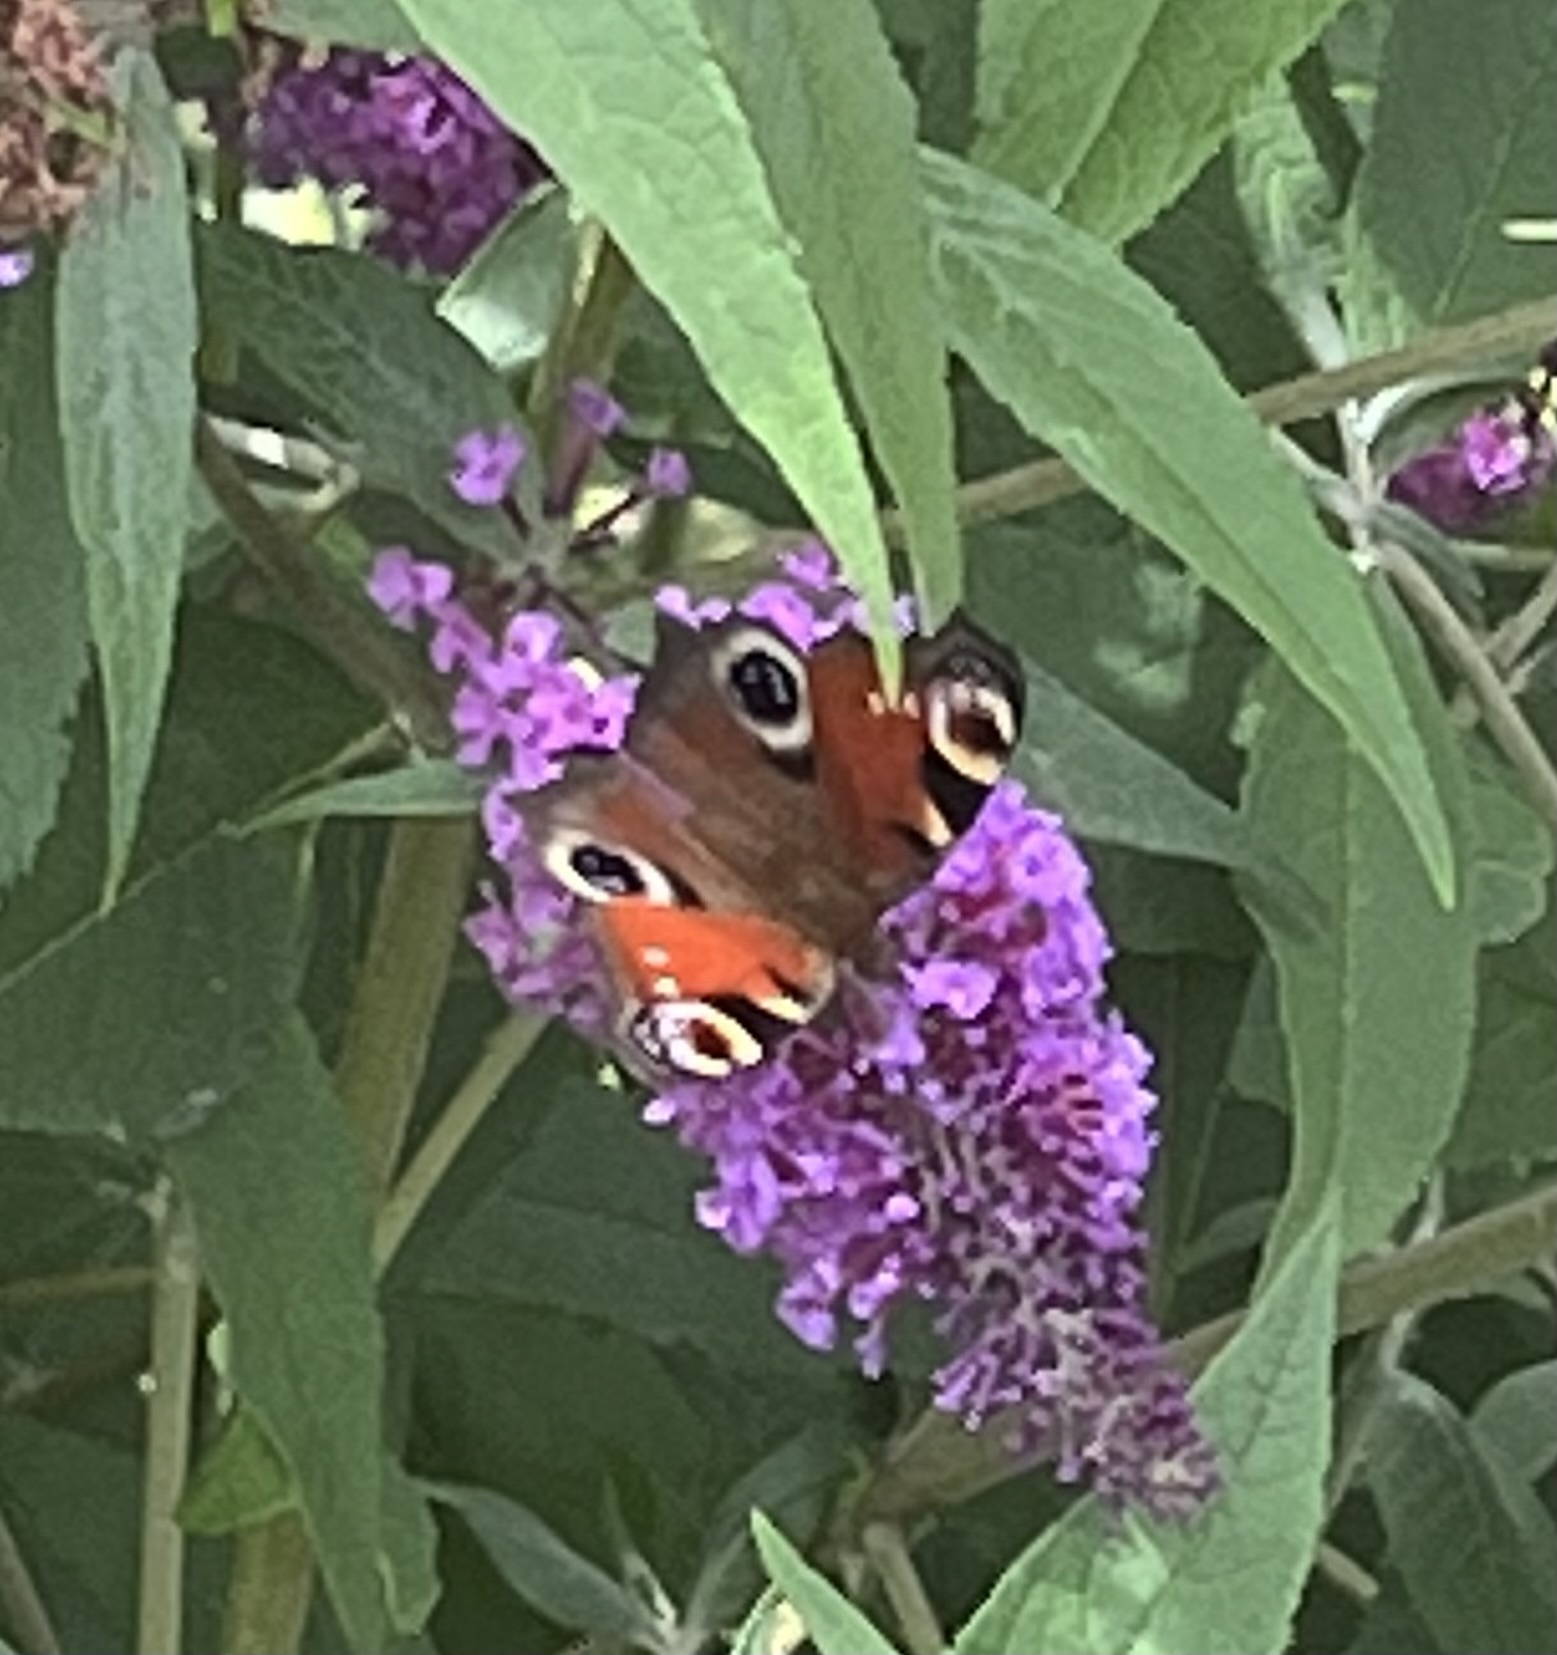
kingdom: Animalia
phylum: Arthropoda
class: Insecta
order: Lepidoptera
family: Nymphalidae
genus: Aglais
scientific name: Aglais io
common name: Peacock
